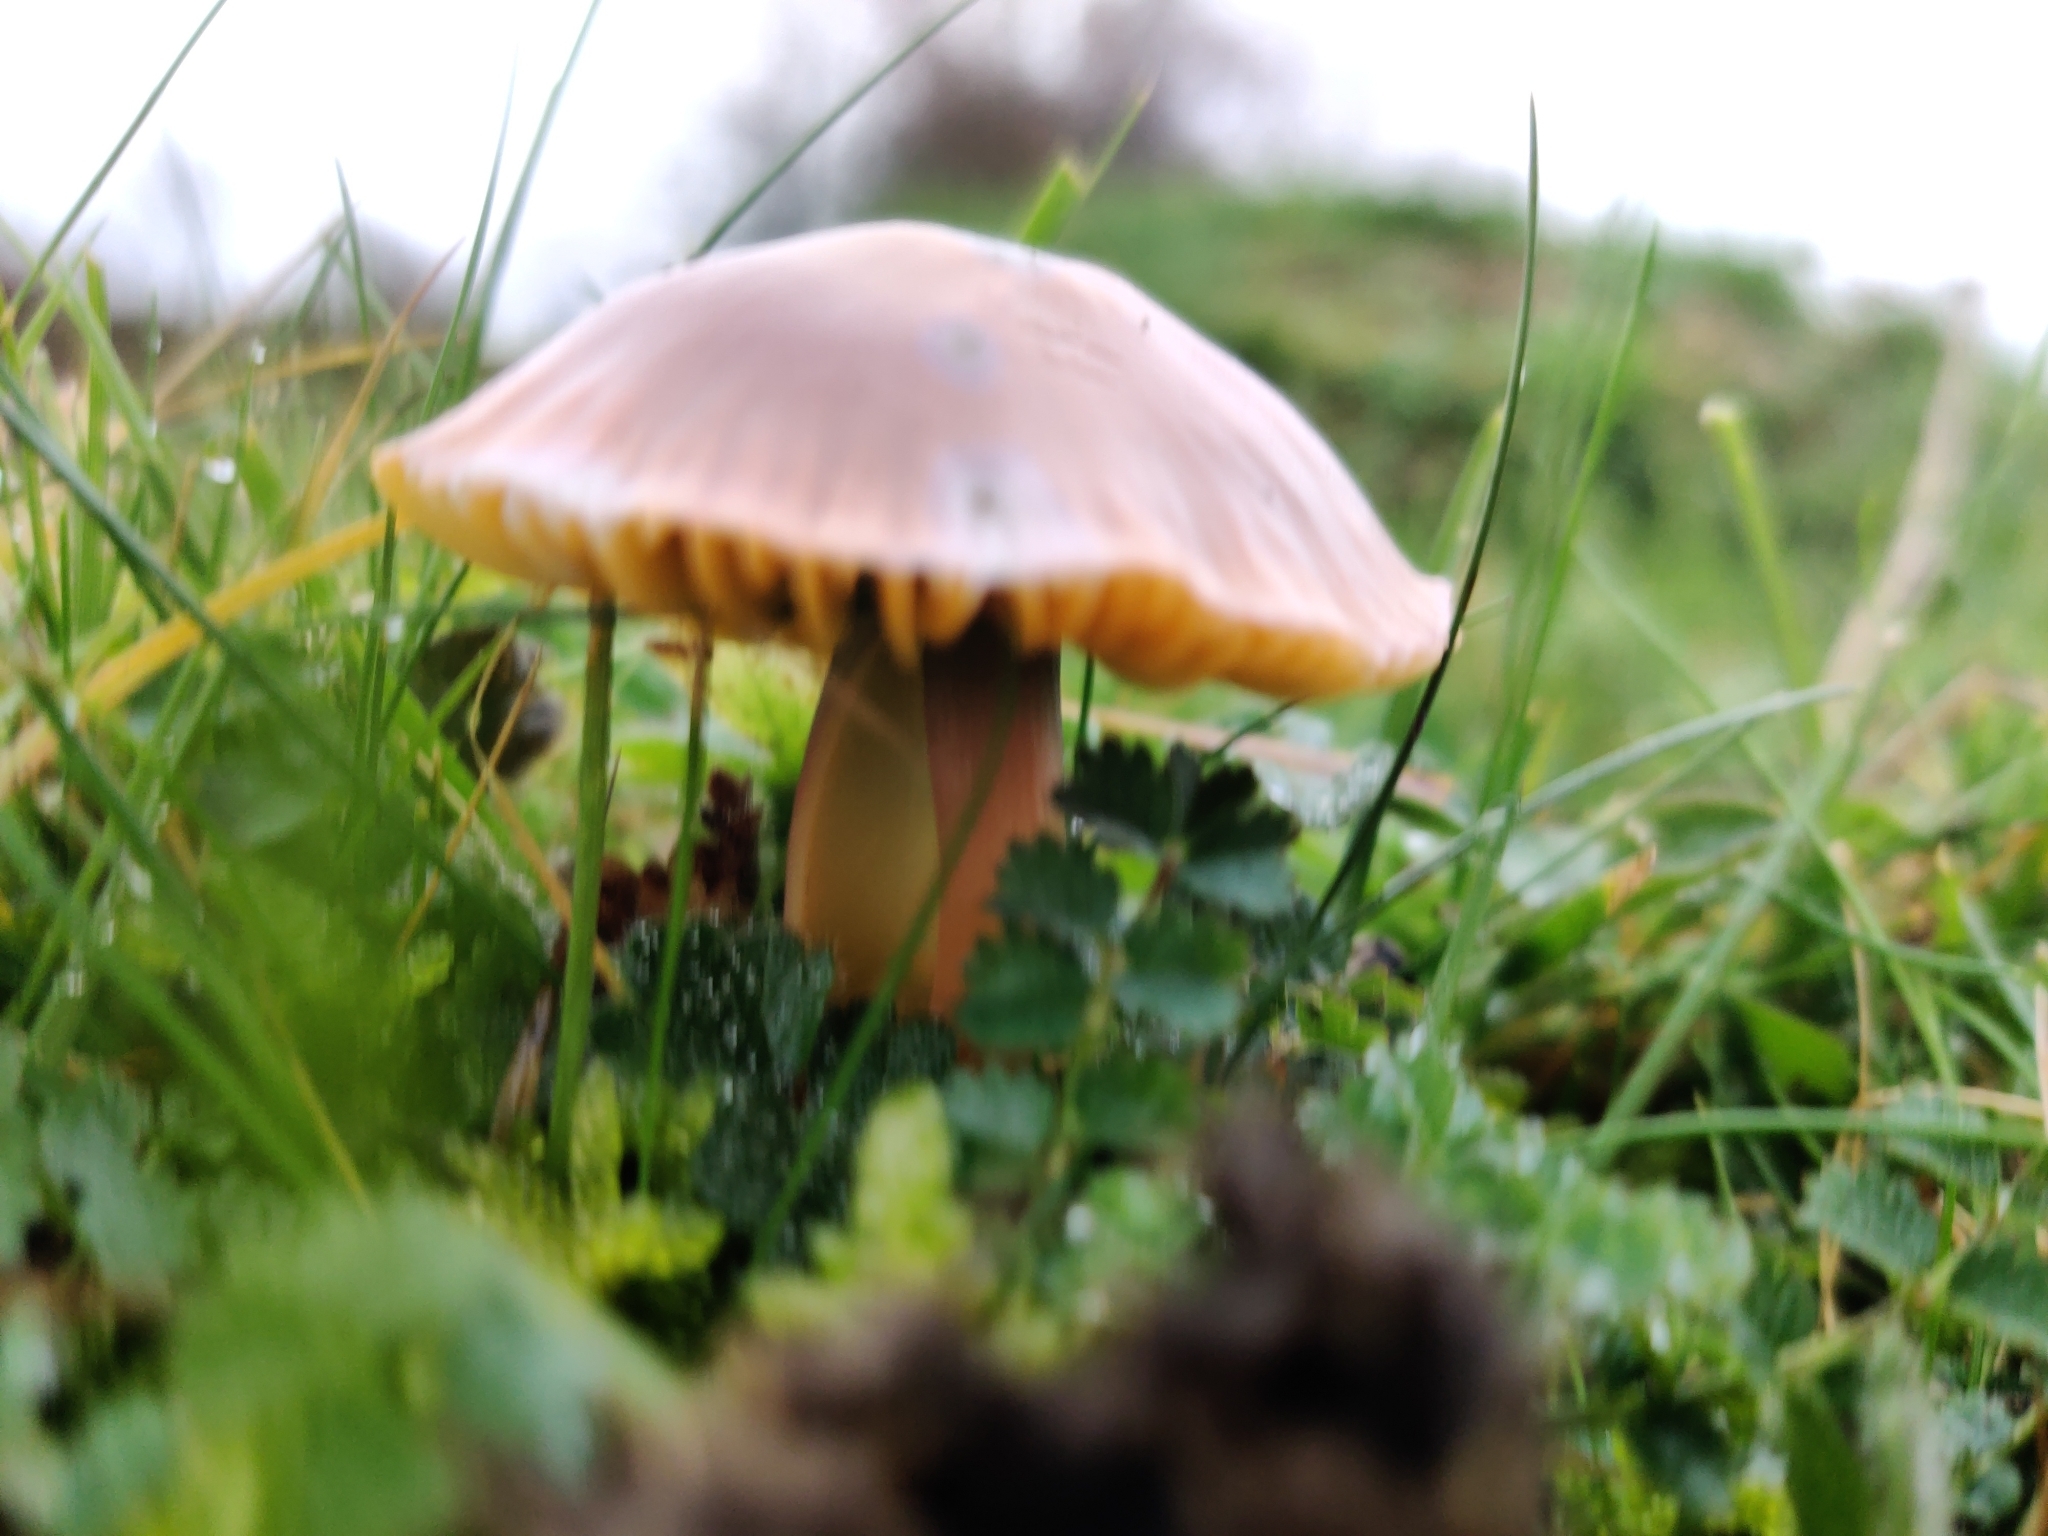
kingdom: Fungi
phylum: Basidiomycota
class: Agaricomycetes
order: Agaricales
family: Hygrophoraceae
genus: Gliophorus
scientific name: Gliophorus psittacinus
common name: Parrot wax-cap
